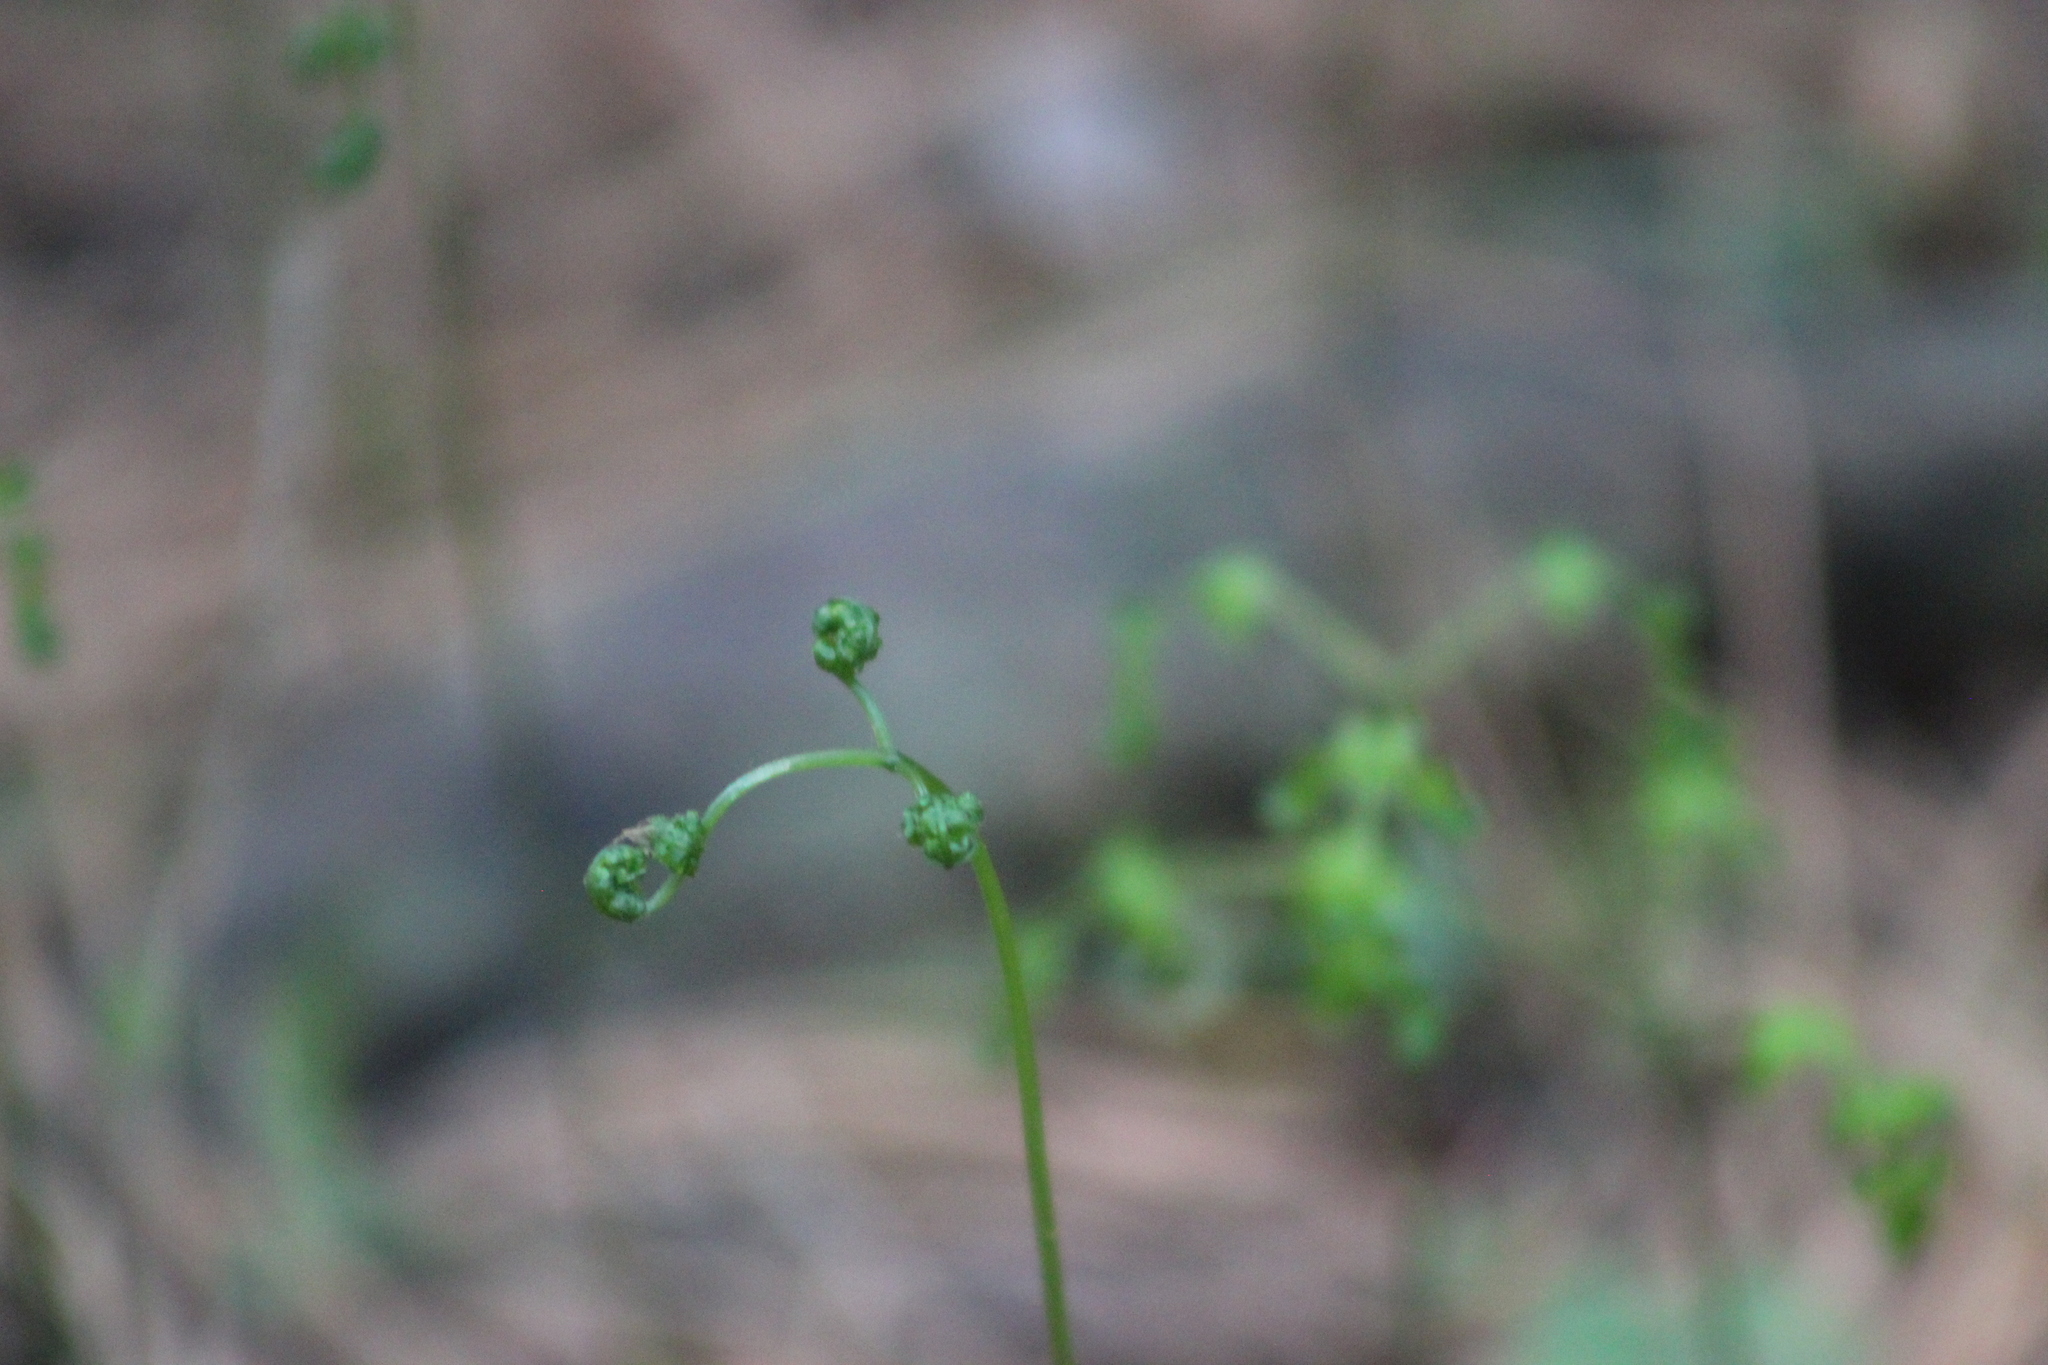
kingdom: Plantae
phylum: Tracheophyta
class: Polypodiopsida
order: Polypodiales
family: Cystopteridaceae
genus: Gymnocarpium
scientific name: Gymnocarpium dryopteris
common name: Oak fern
